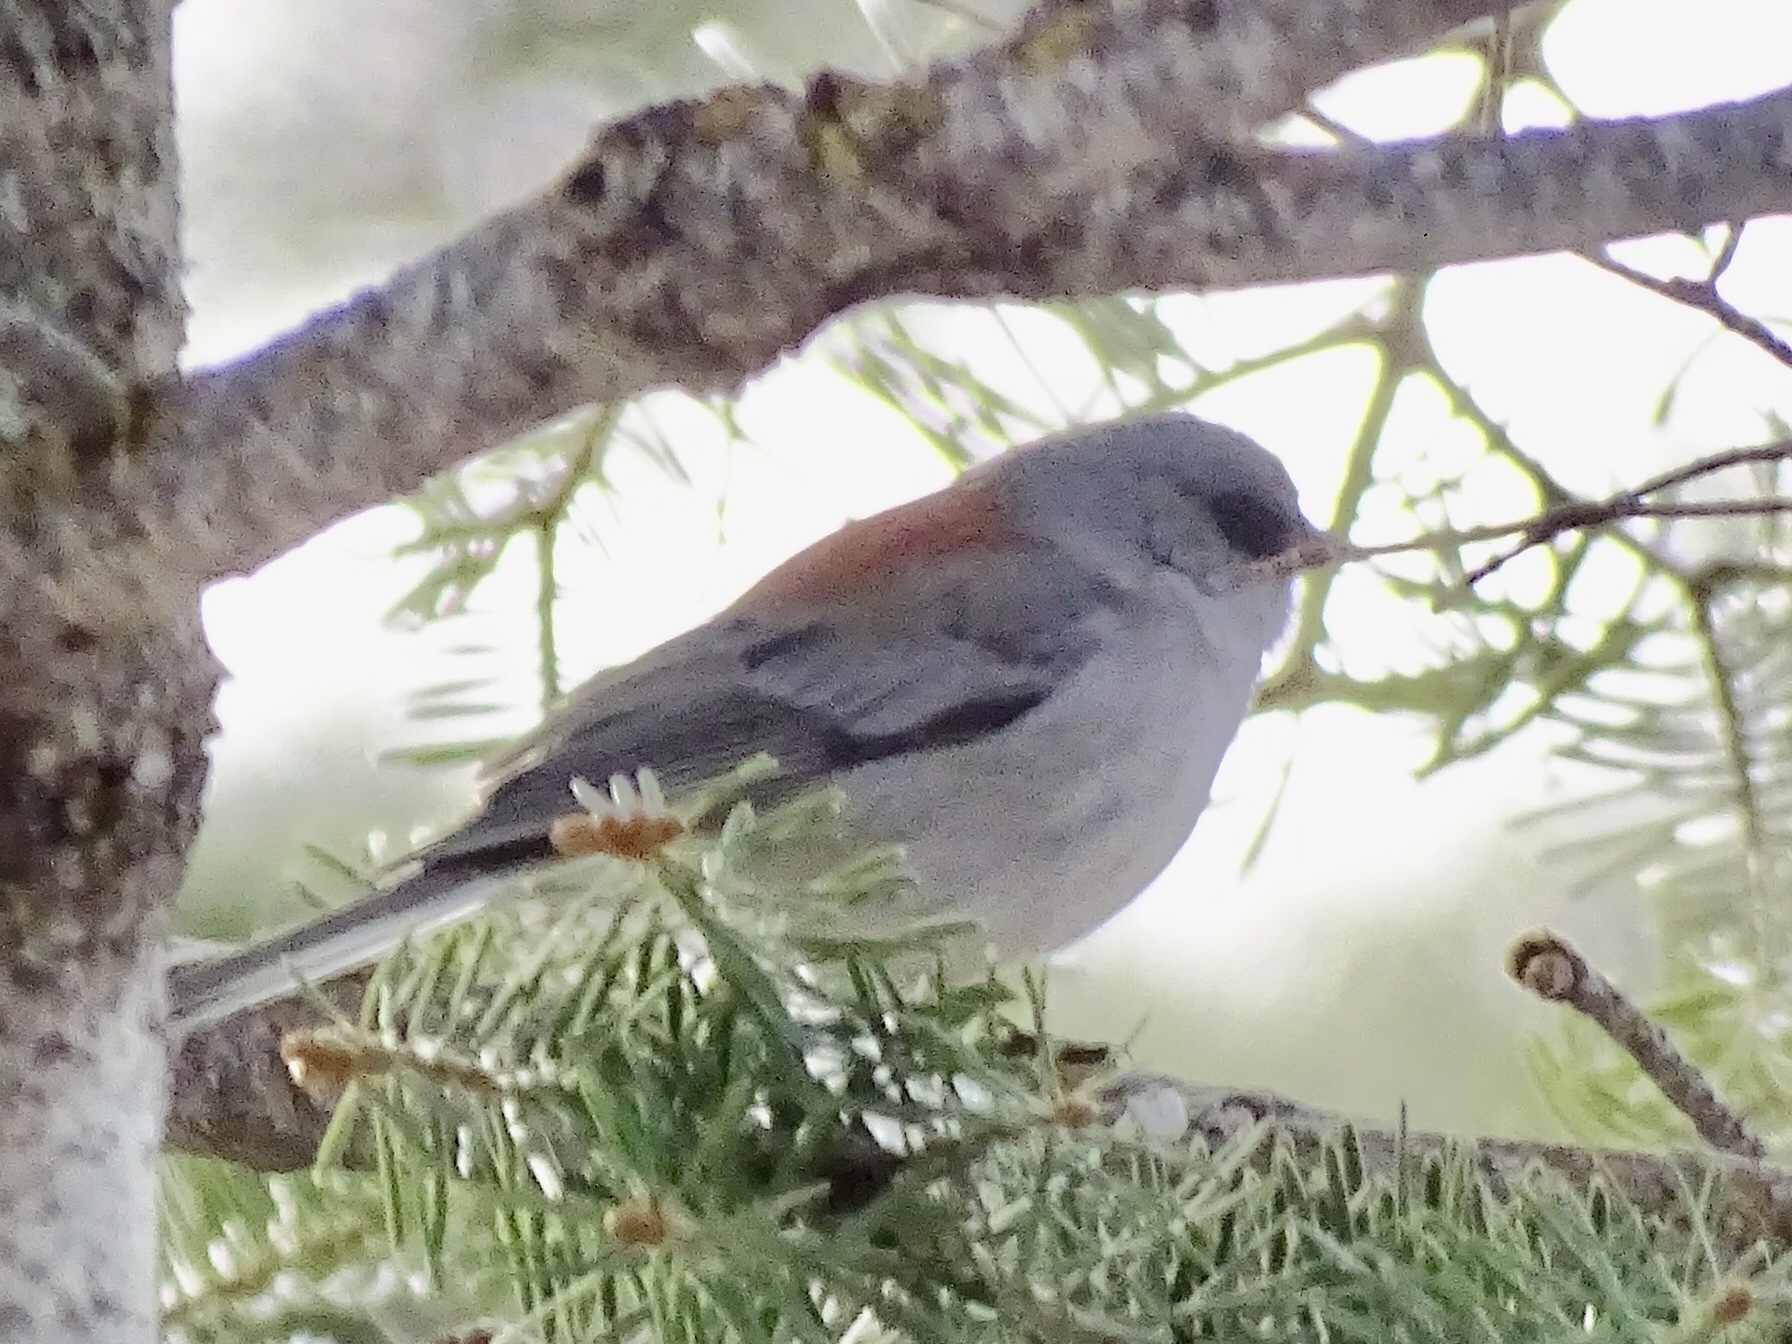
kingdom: Animalia
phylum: Chordata
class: Aves
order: Passeriformes
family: Passerellidae
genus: Junco
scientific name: Junco hyemalis
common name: Dark-eyed junco
